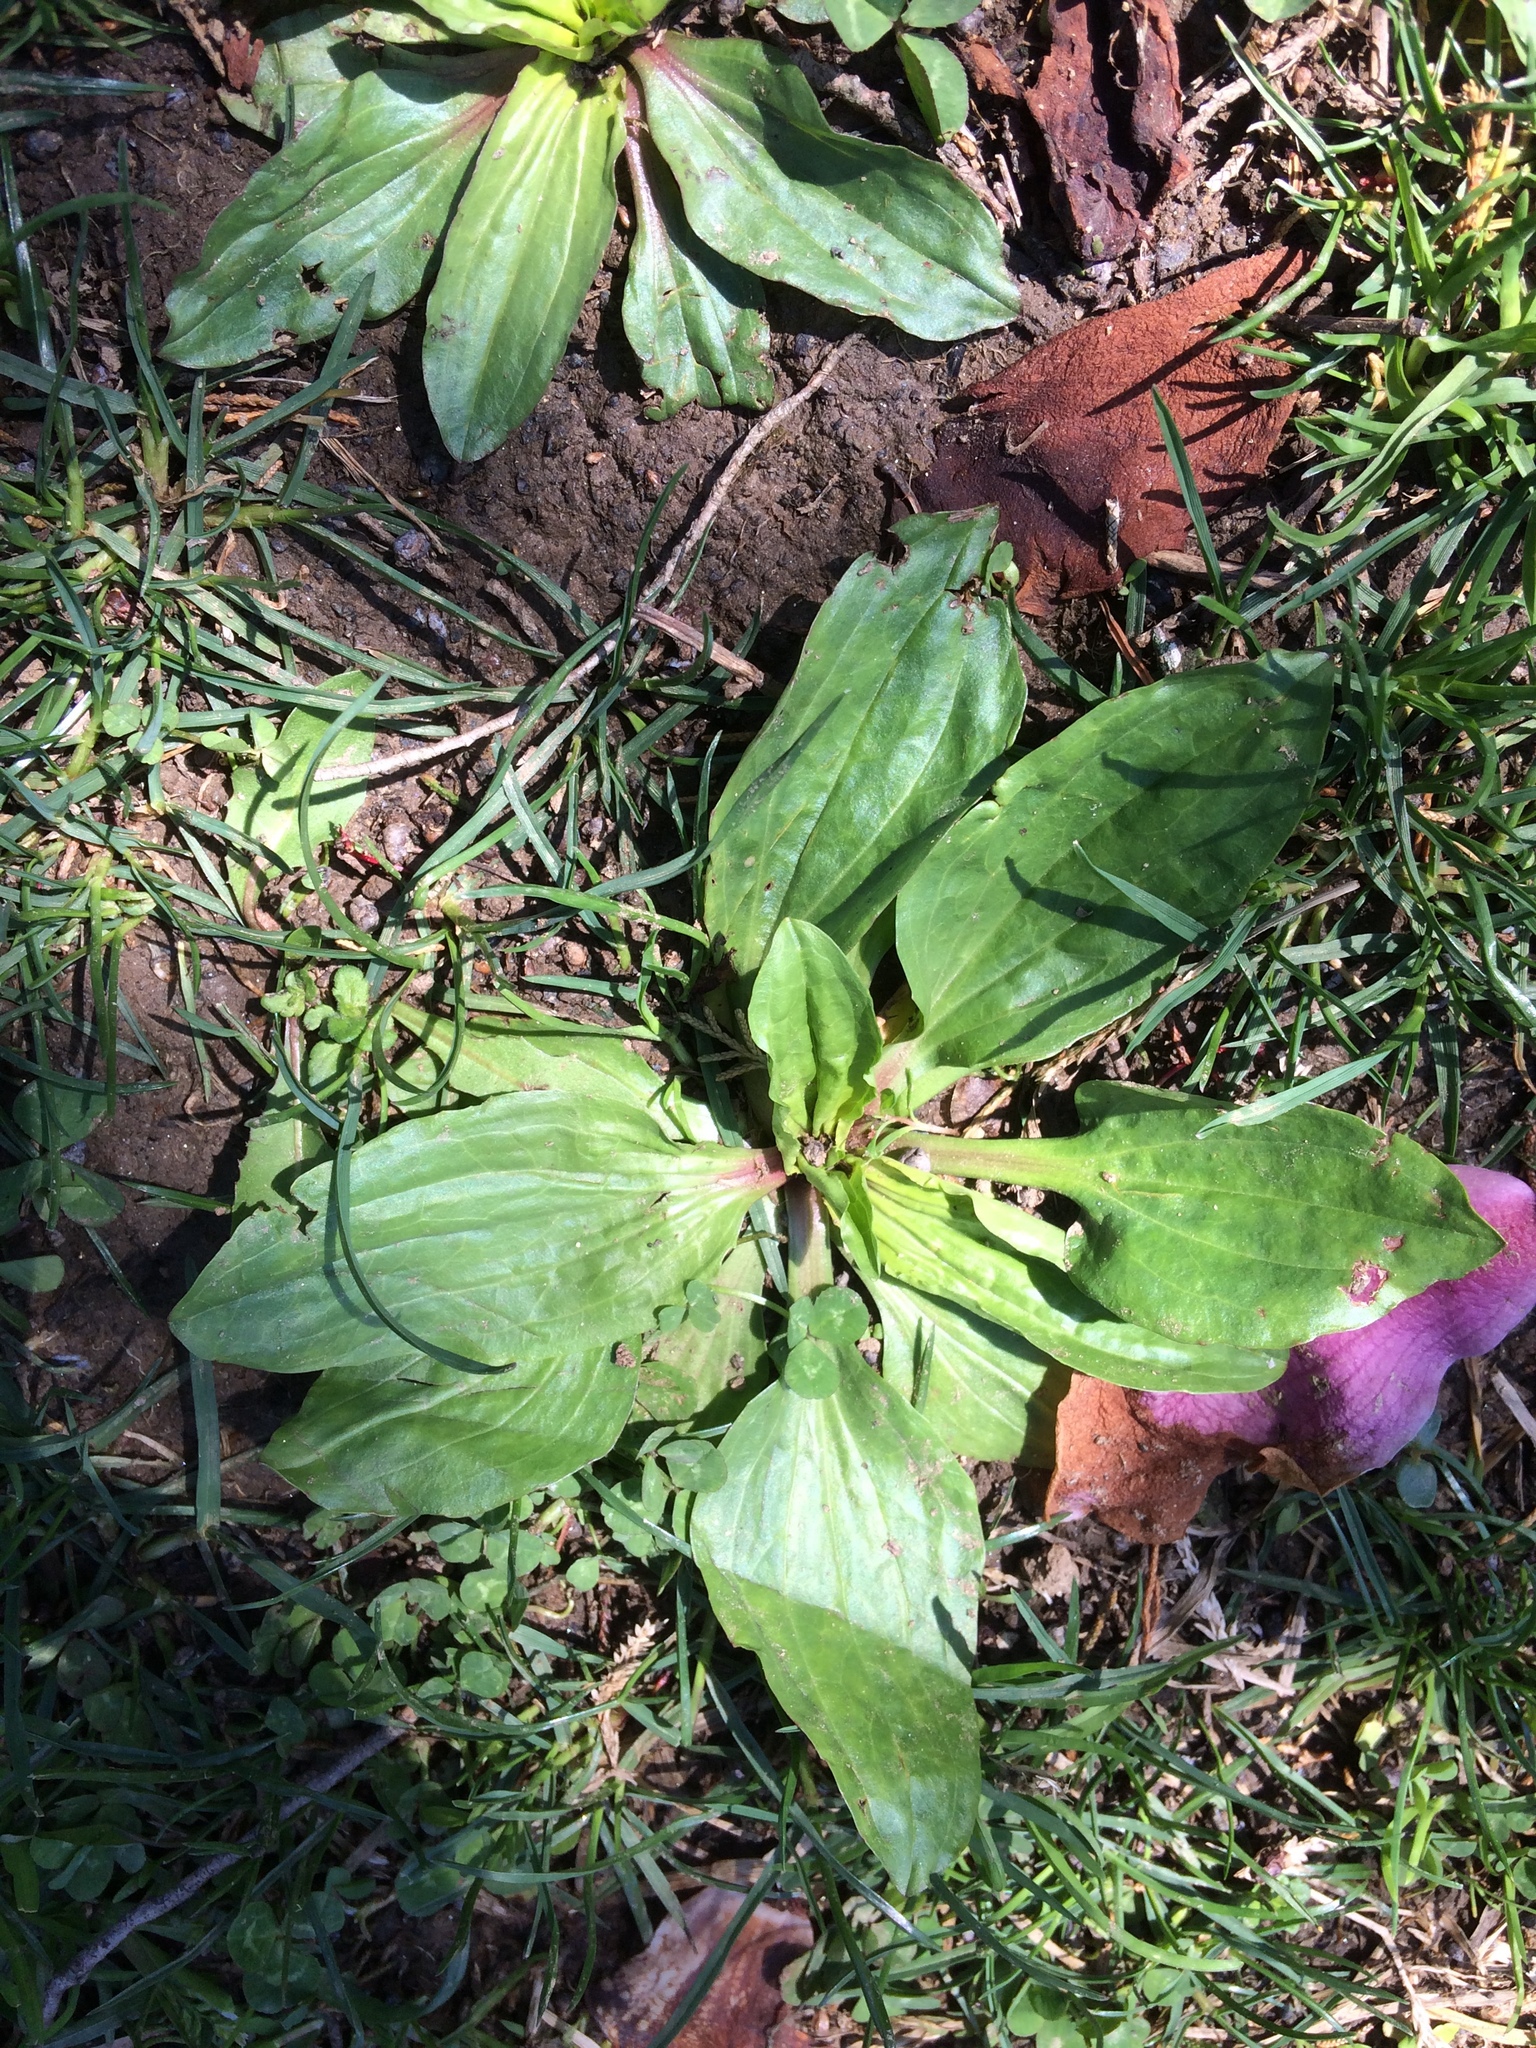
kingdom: Plantae
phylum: Tracheophyta
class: Magnoliopsida
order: Lamiales
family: Plantaginaceae
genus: Plantago
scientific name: Plantago rugelii
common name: American plantain
